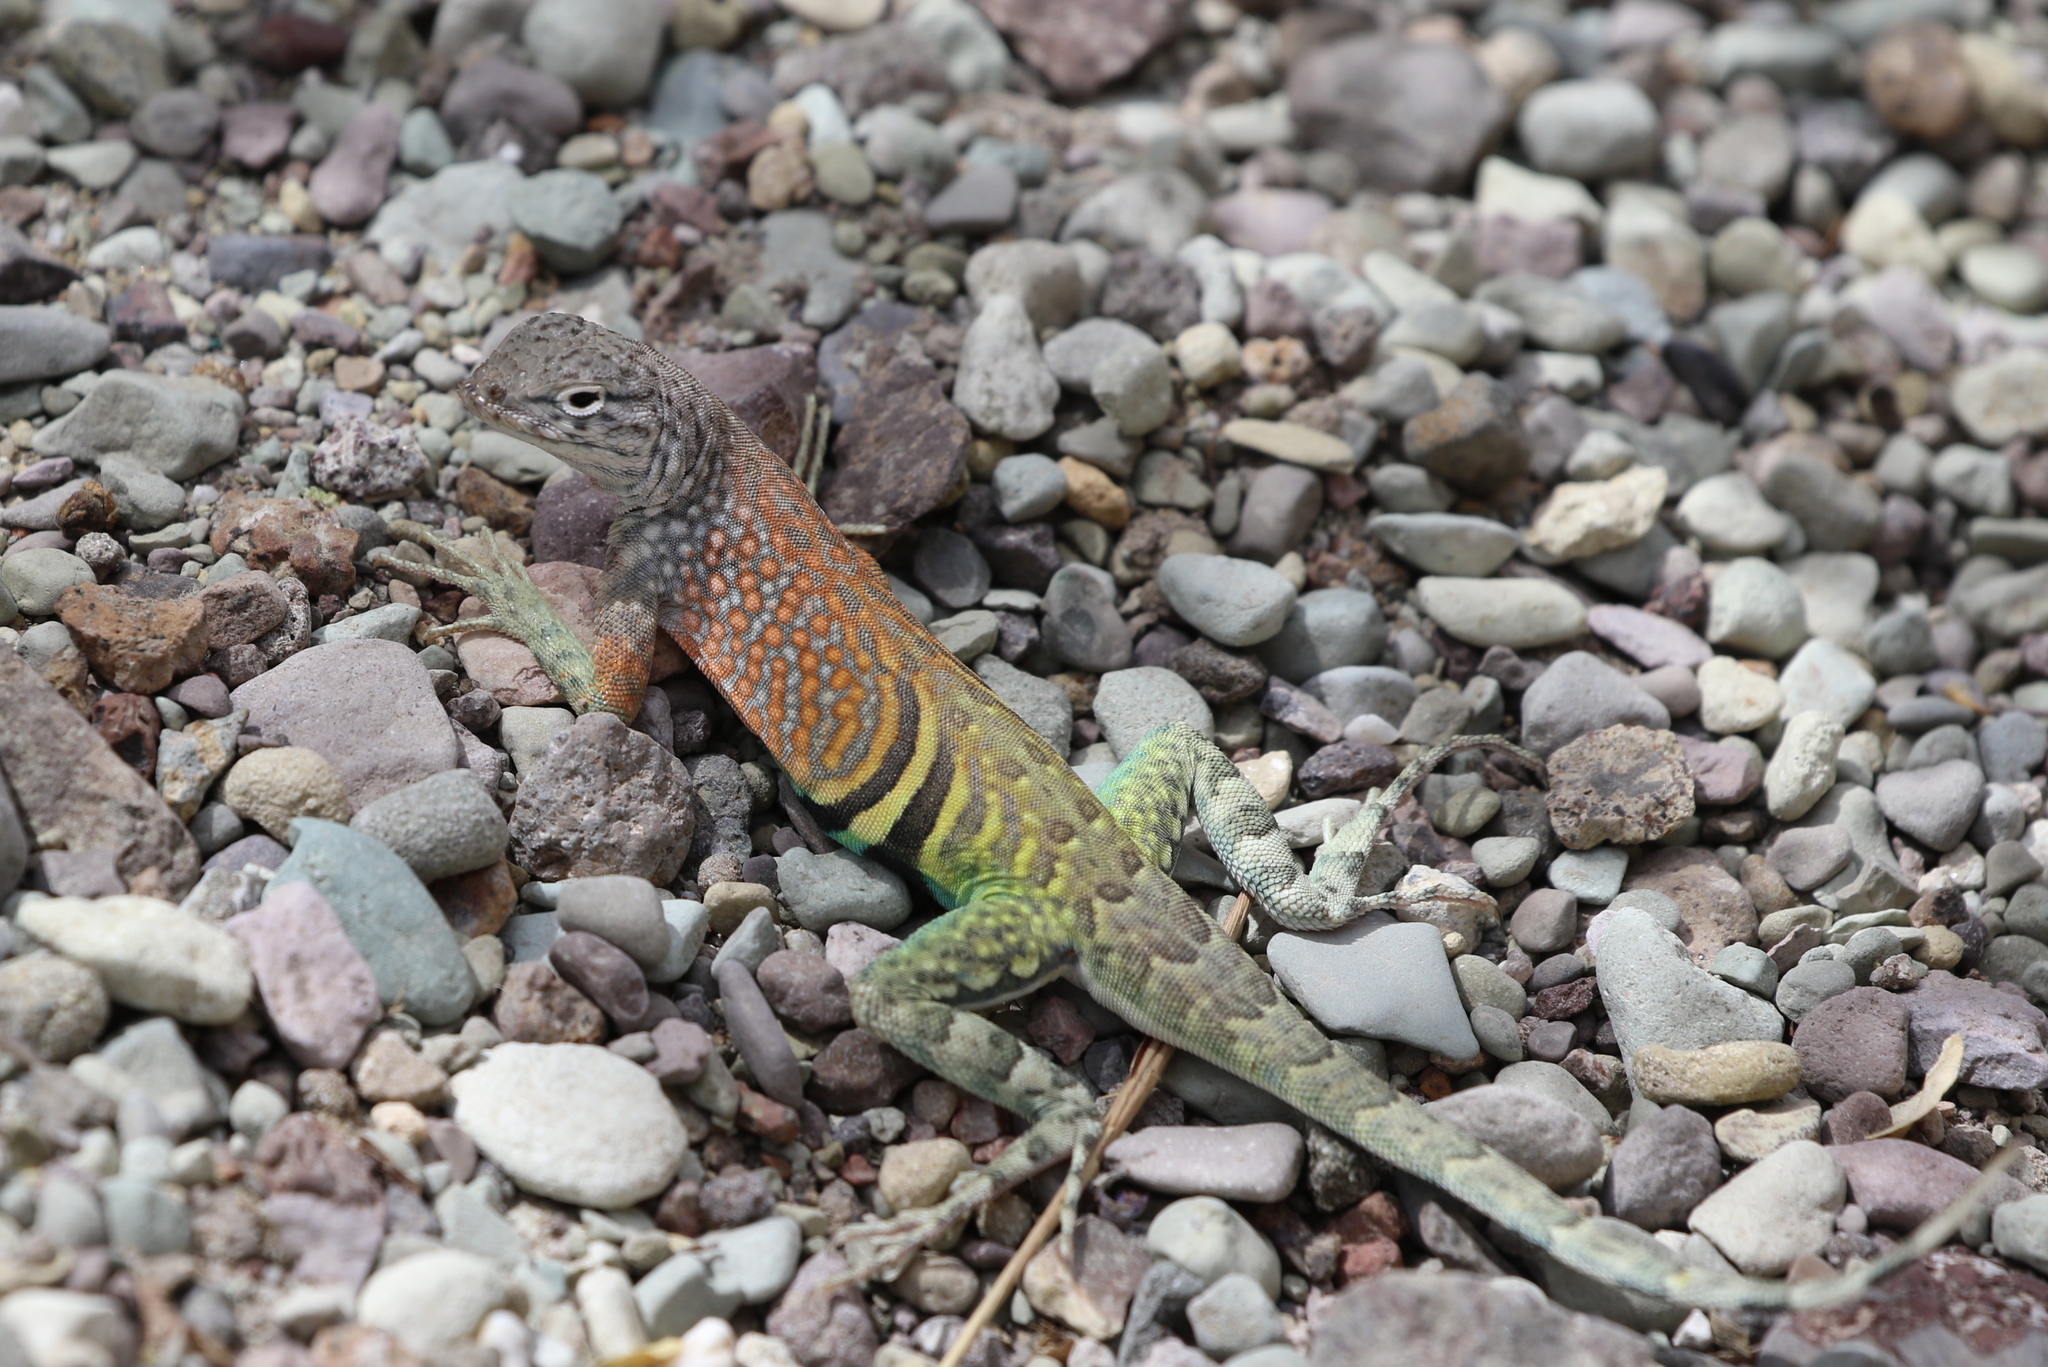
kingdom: Animalia
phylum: Chordata
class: Squamata
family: Phrynosomatidae
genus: Cophosaurus
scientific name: Cophosaurus texanus
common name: Greater earless lizard
